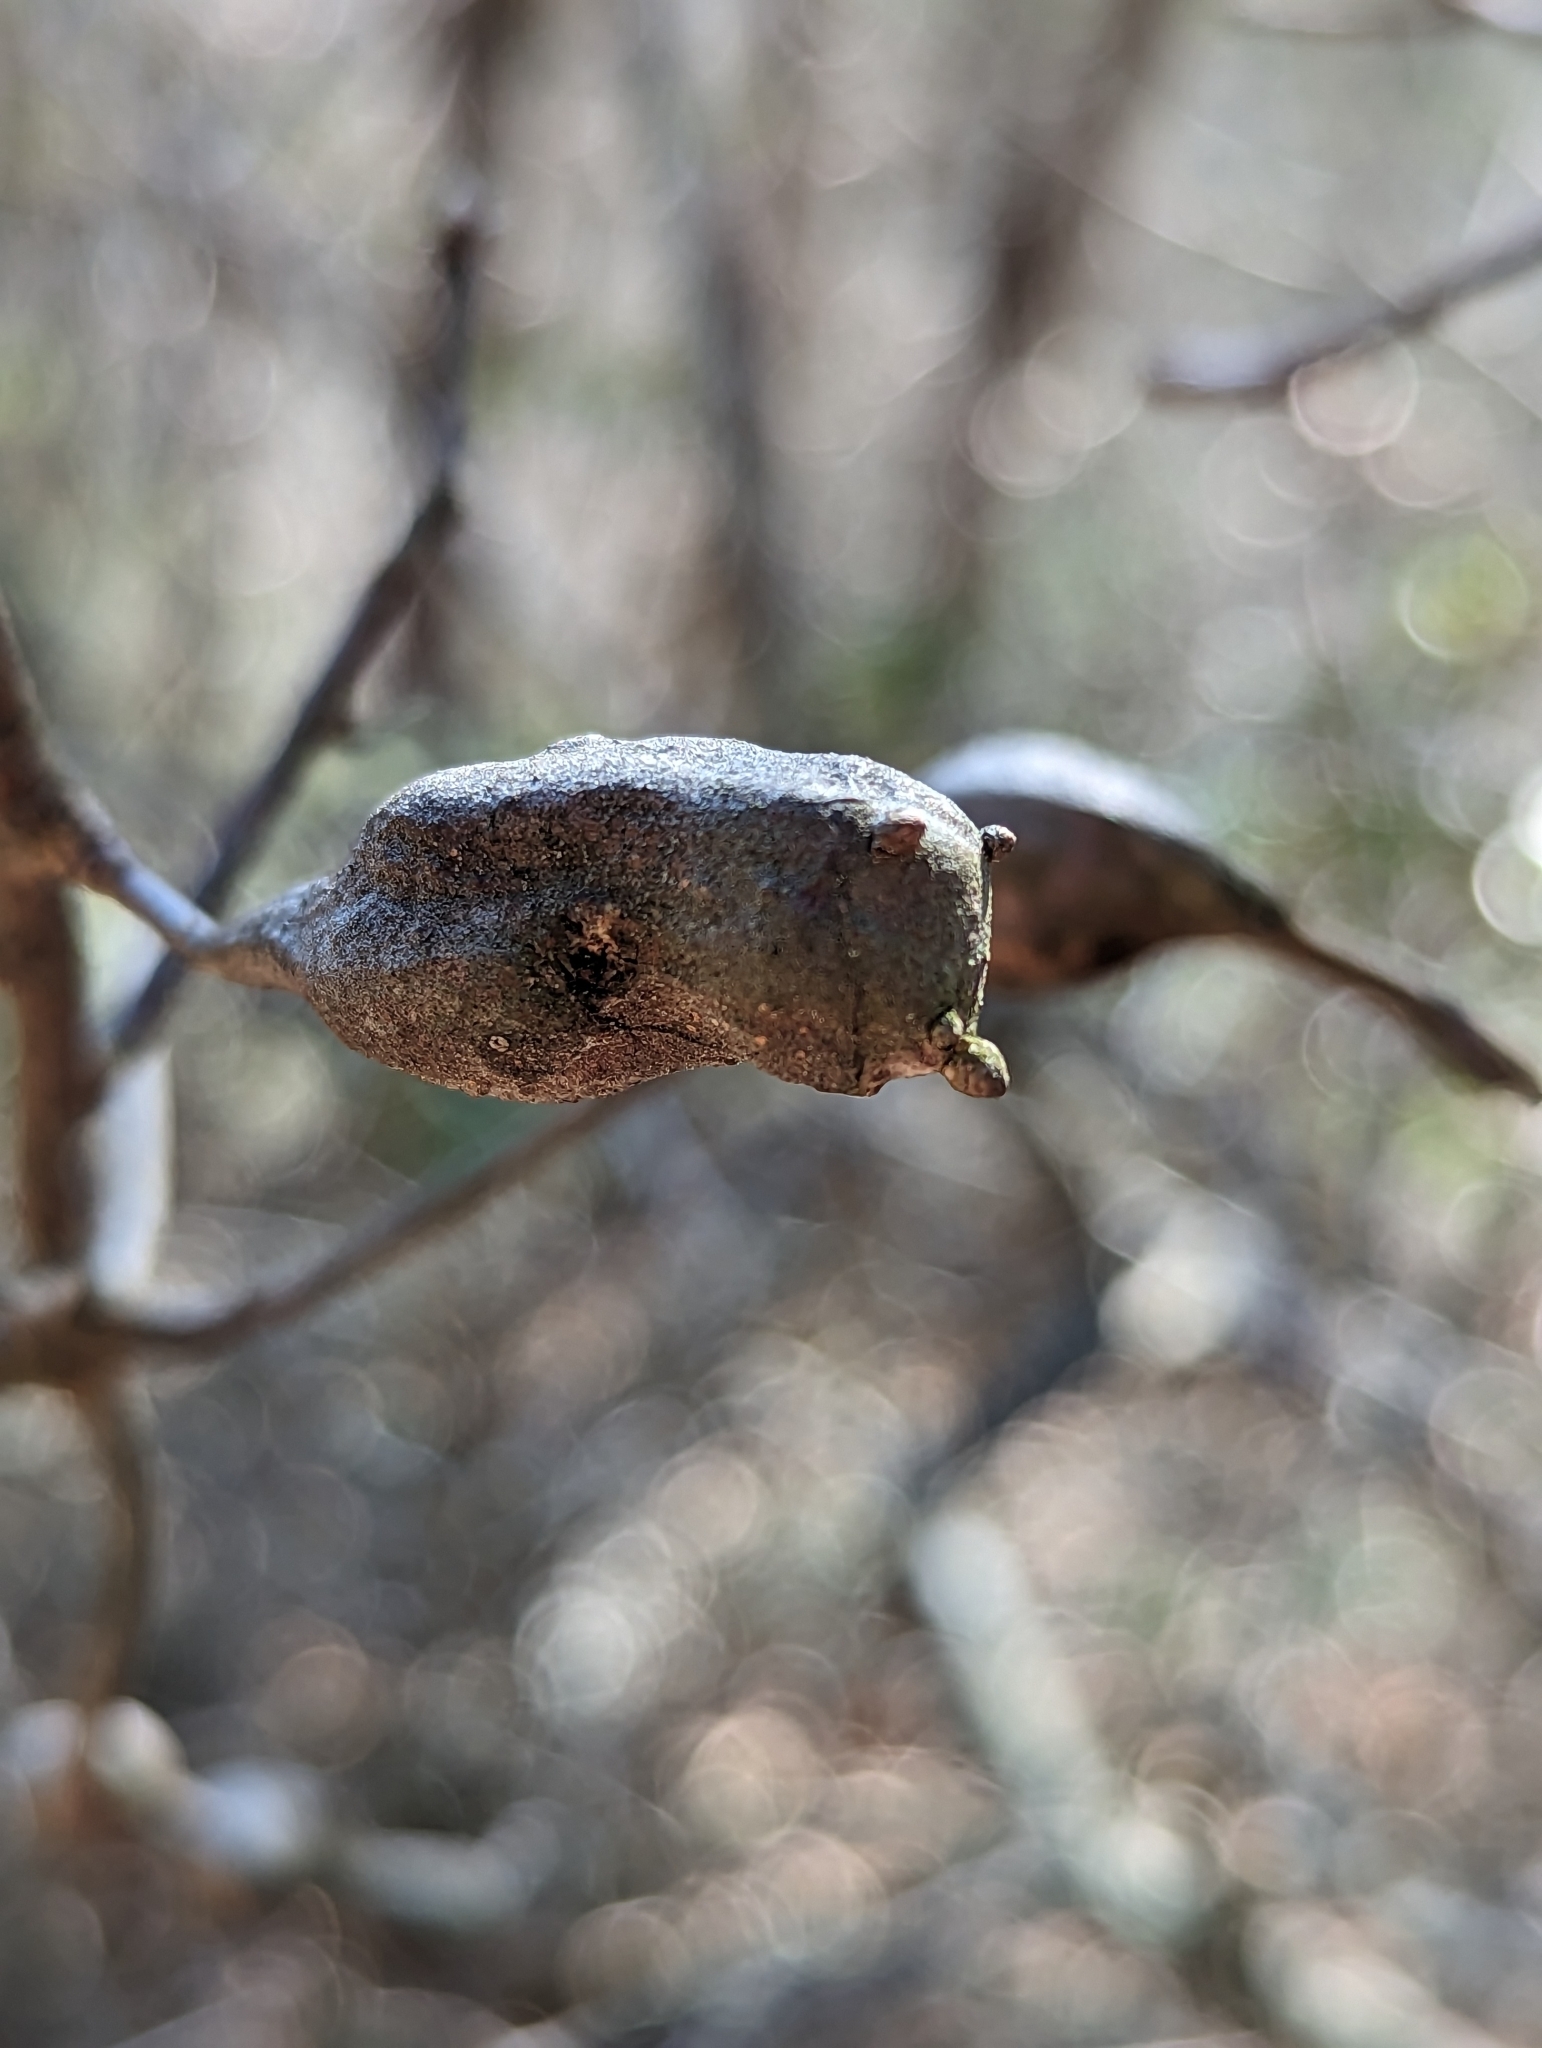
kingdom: Animalia
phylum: Arthropoda
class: Insecta
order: Hymenoptera
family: Cynipidae
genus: Zapatella
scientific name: Zapatella quercusphellos
